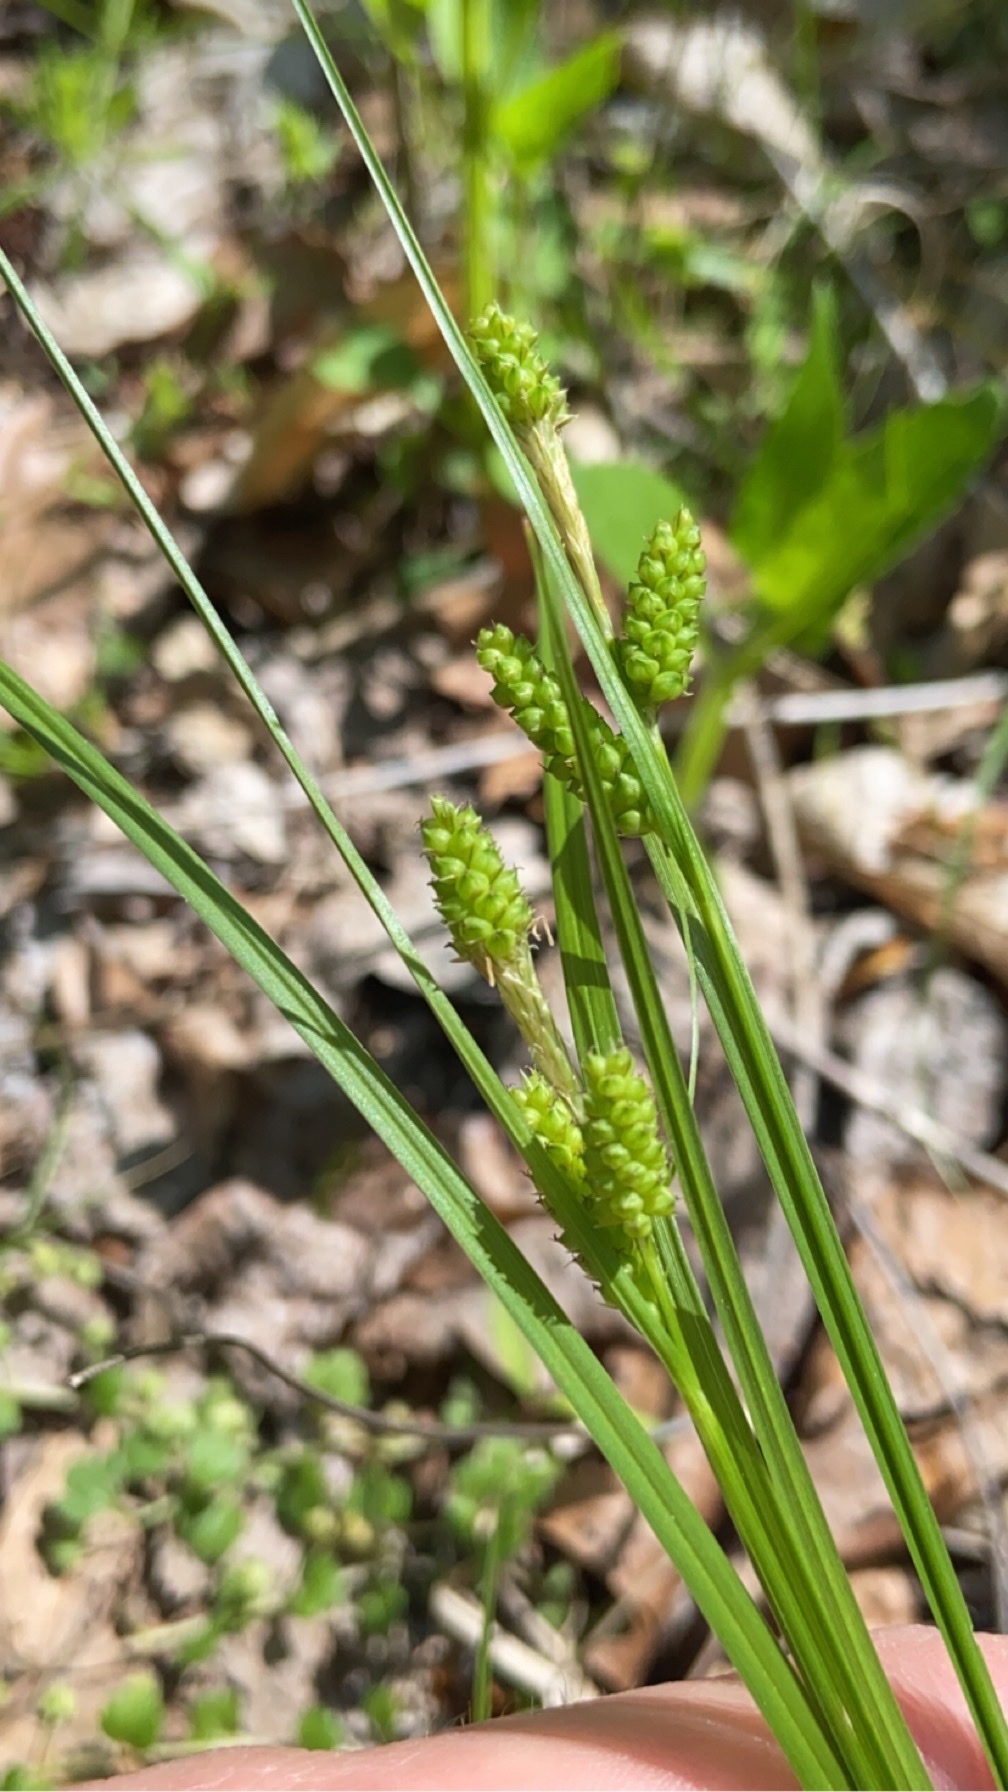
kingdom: Plantae
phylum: Tracheophyta
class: Liliopsida
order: Poales
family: Cyperaceae
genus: Carex
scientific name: Carex caroliniana
